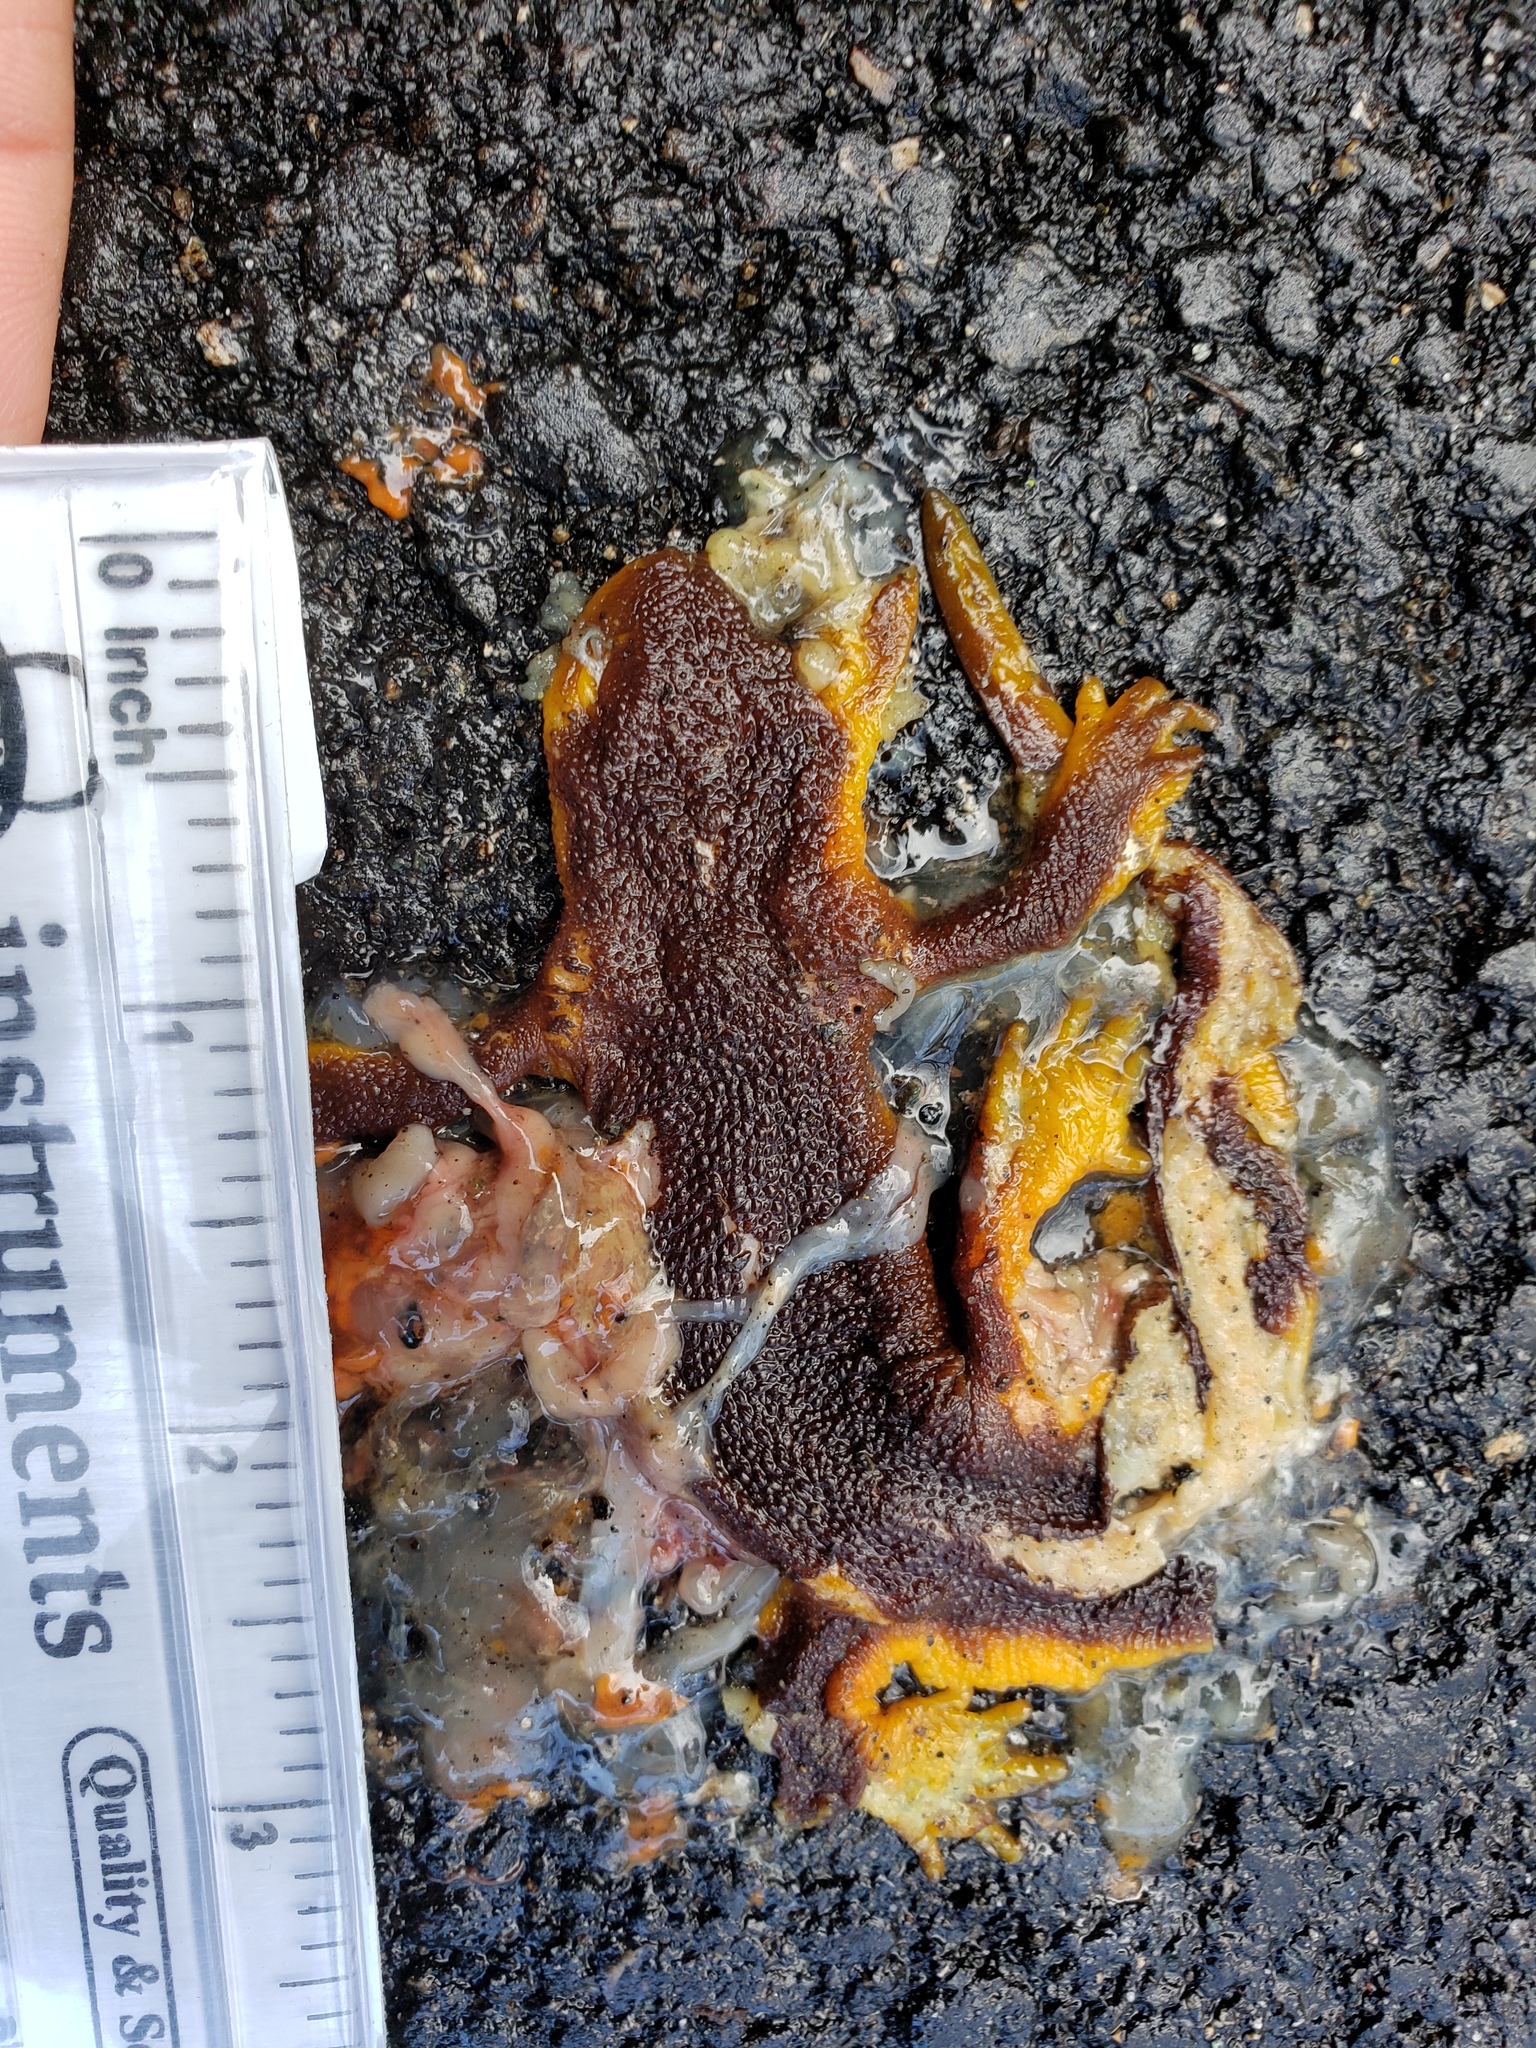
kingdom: Animalia
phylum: Chordata
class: Amphibia
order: Caudata
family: Salamandridae
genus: Taricha
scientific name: Taricha
